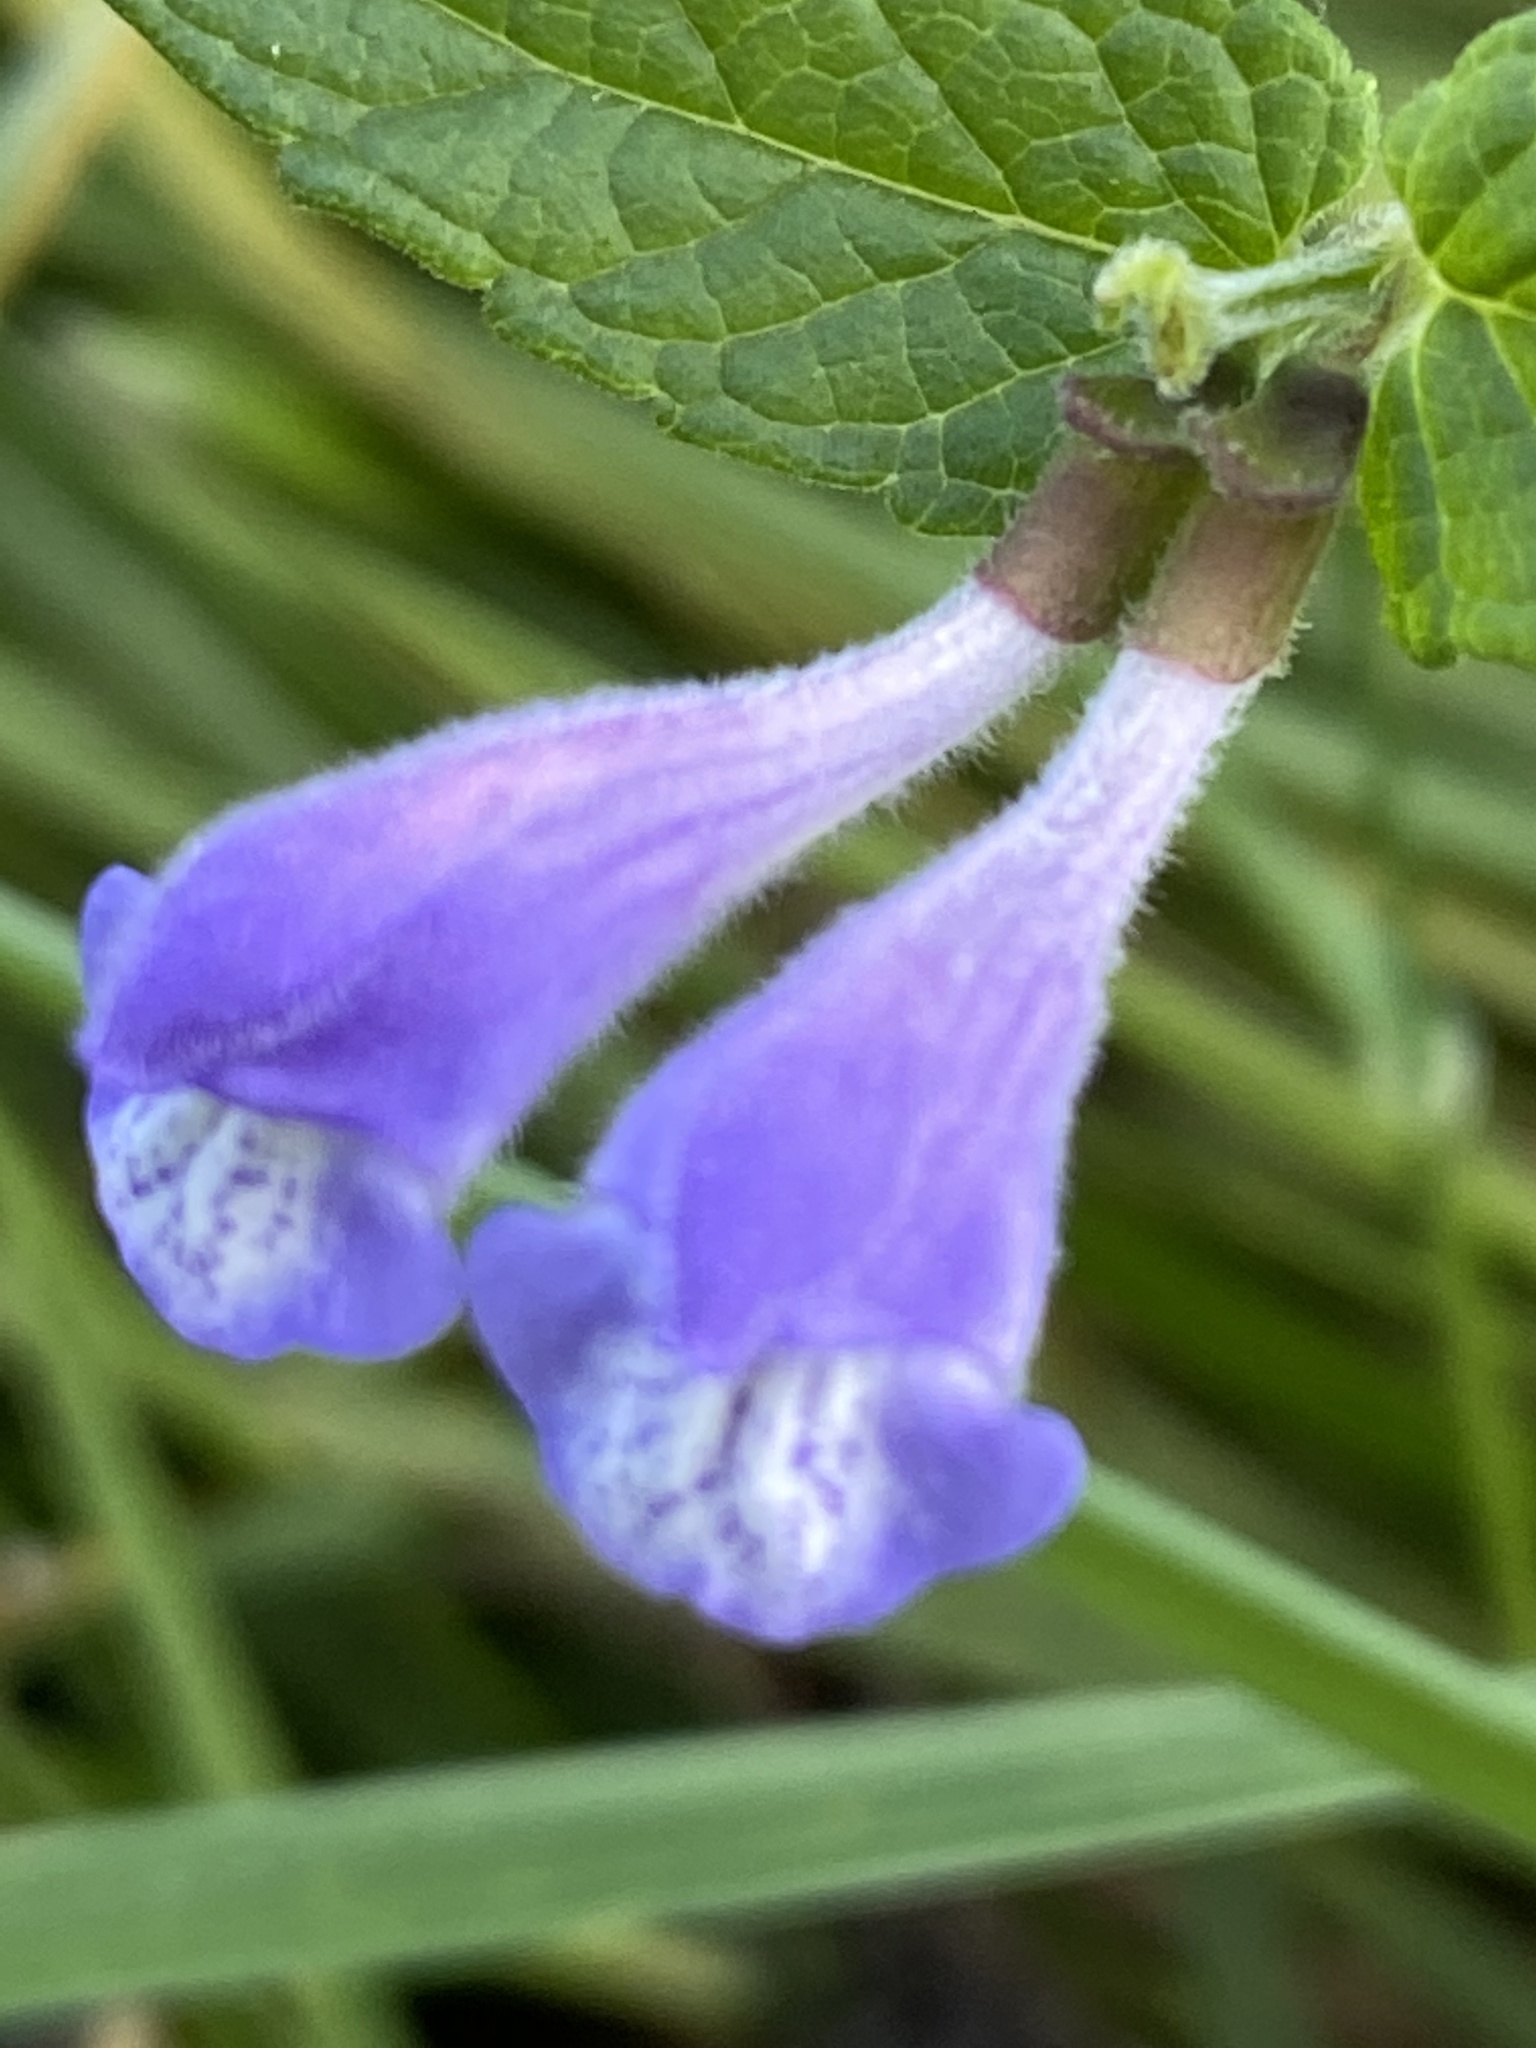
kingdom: Plantae
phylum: Tracheophyta
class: Magnoliopsida
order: Lamiales
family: Lamiaceae
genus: Scutellaria
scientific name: Scutellaria galericulata
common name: Skullcap
